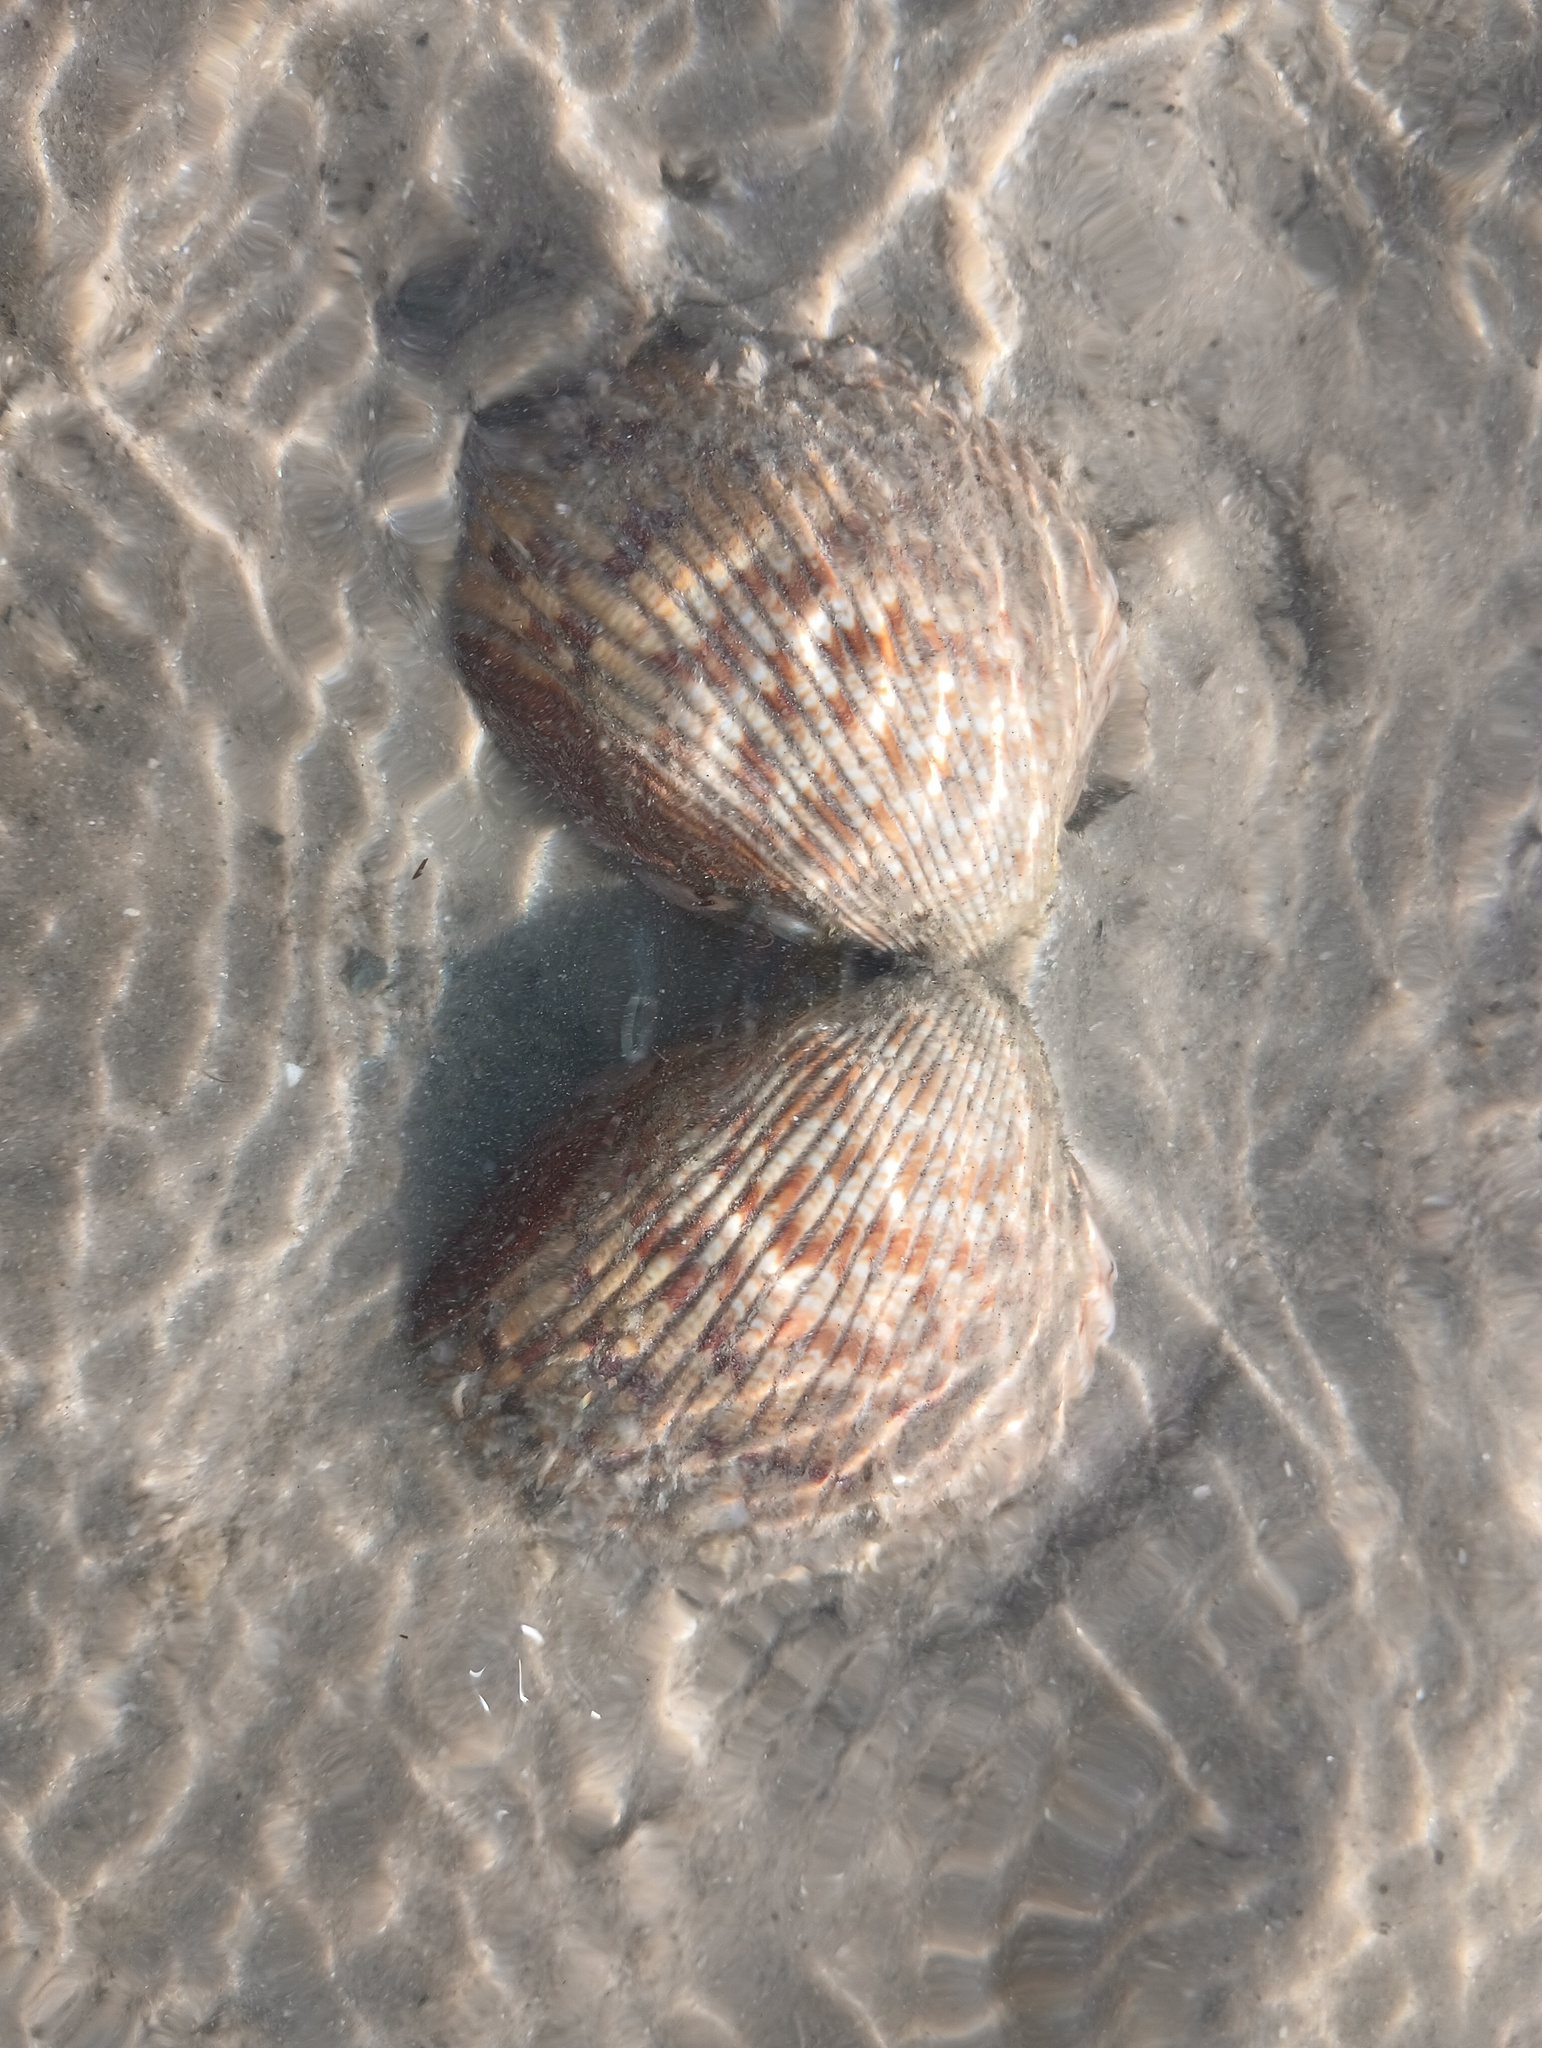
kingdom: Animalia
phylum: Mollusca
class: Bivalvia
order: Cardiida
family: Cardiidae
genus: Dinocardium
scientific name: Dinocardium robustum
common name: Atlantic giant cockle
